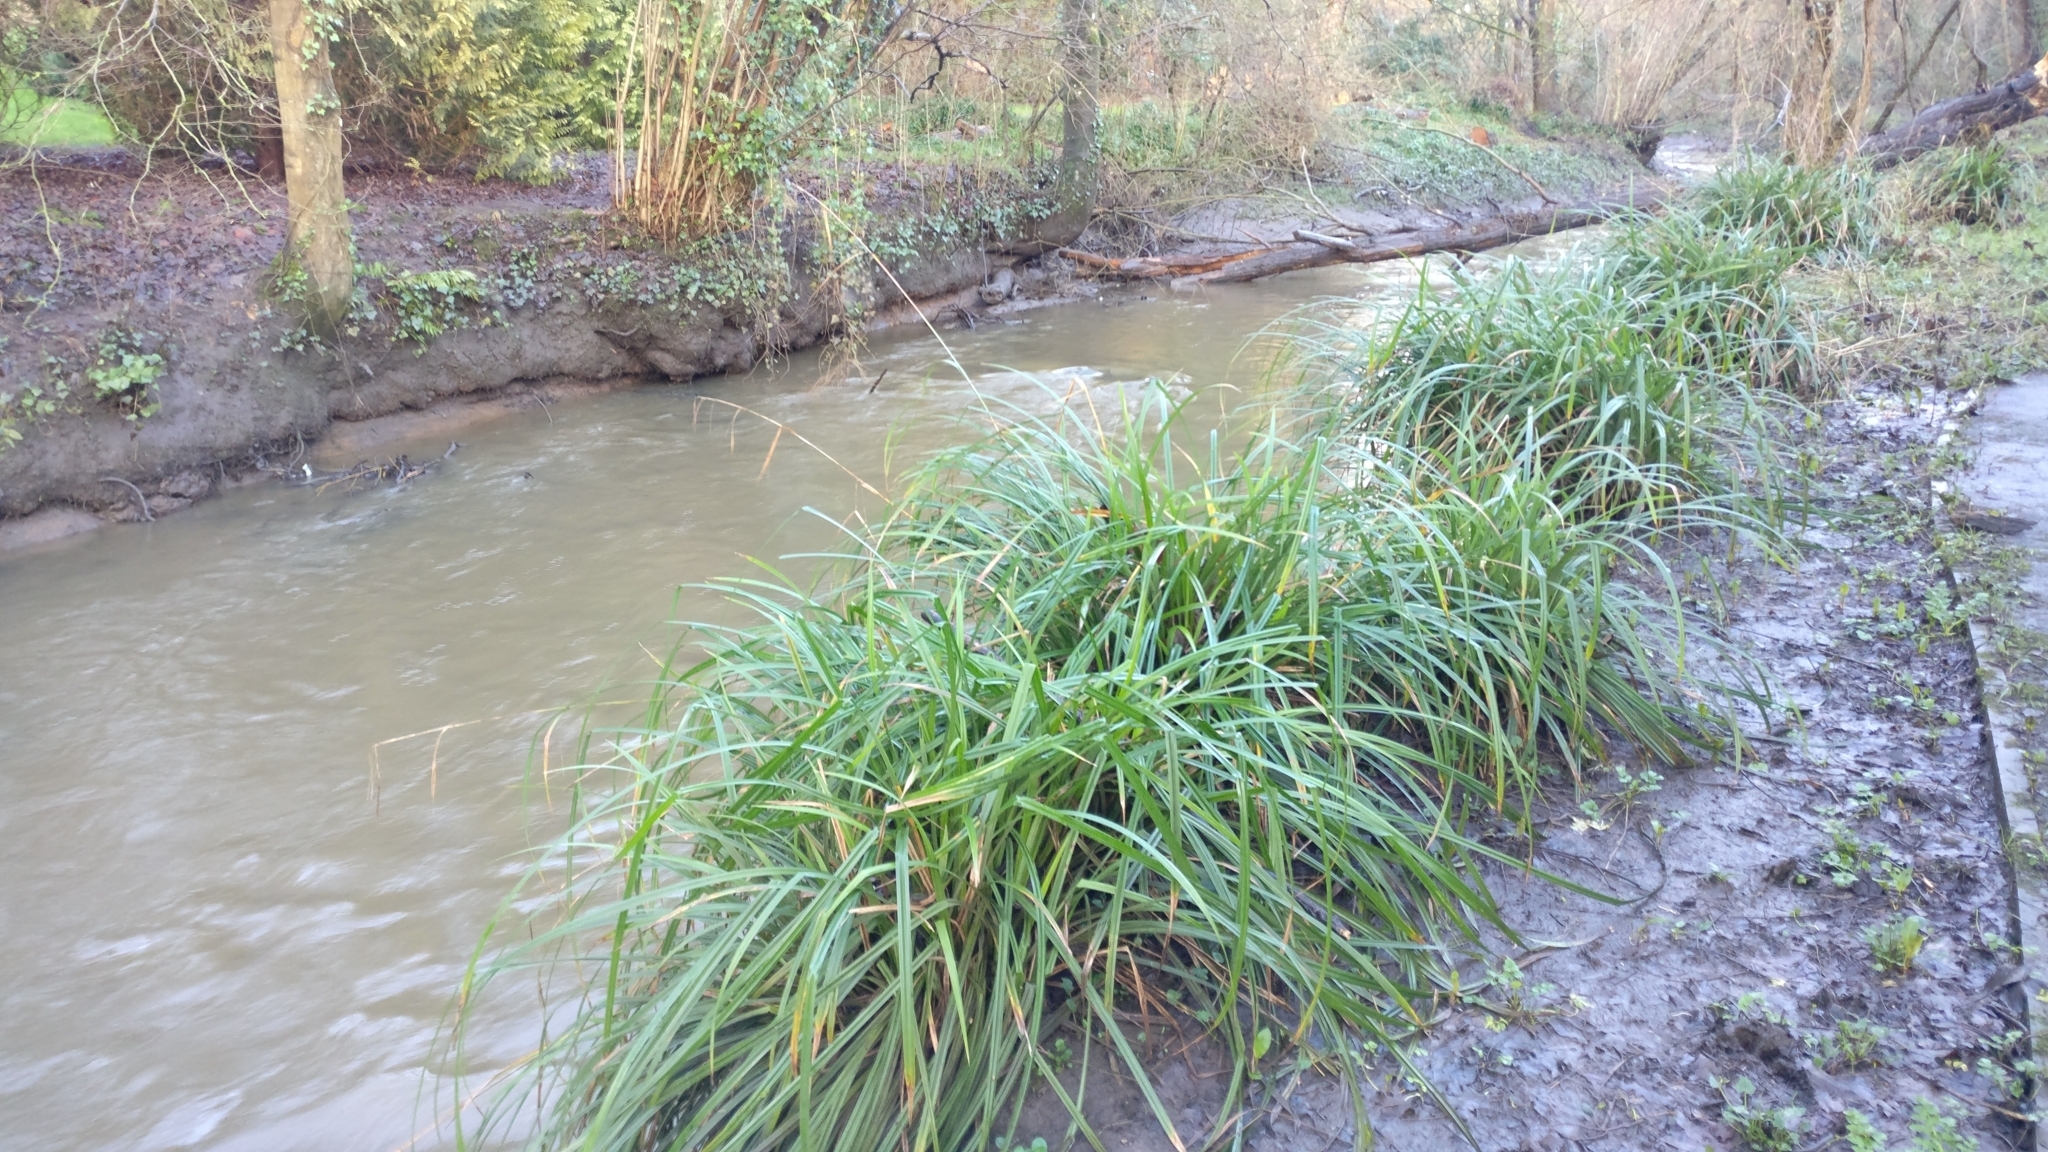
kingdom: Plantae
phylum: Tracheophyta
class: Liliopsida
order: Poales
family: Cyperaceae
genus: Carex
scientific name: Carex pendula
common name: Pendulous sedge
